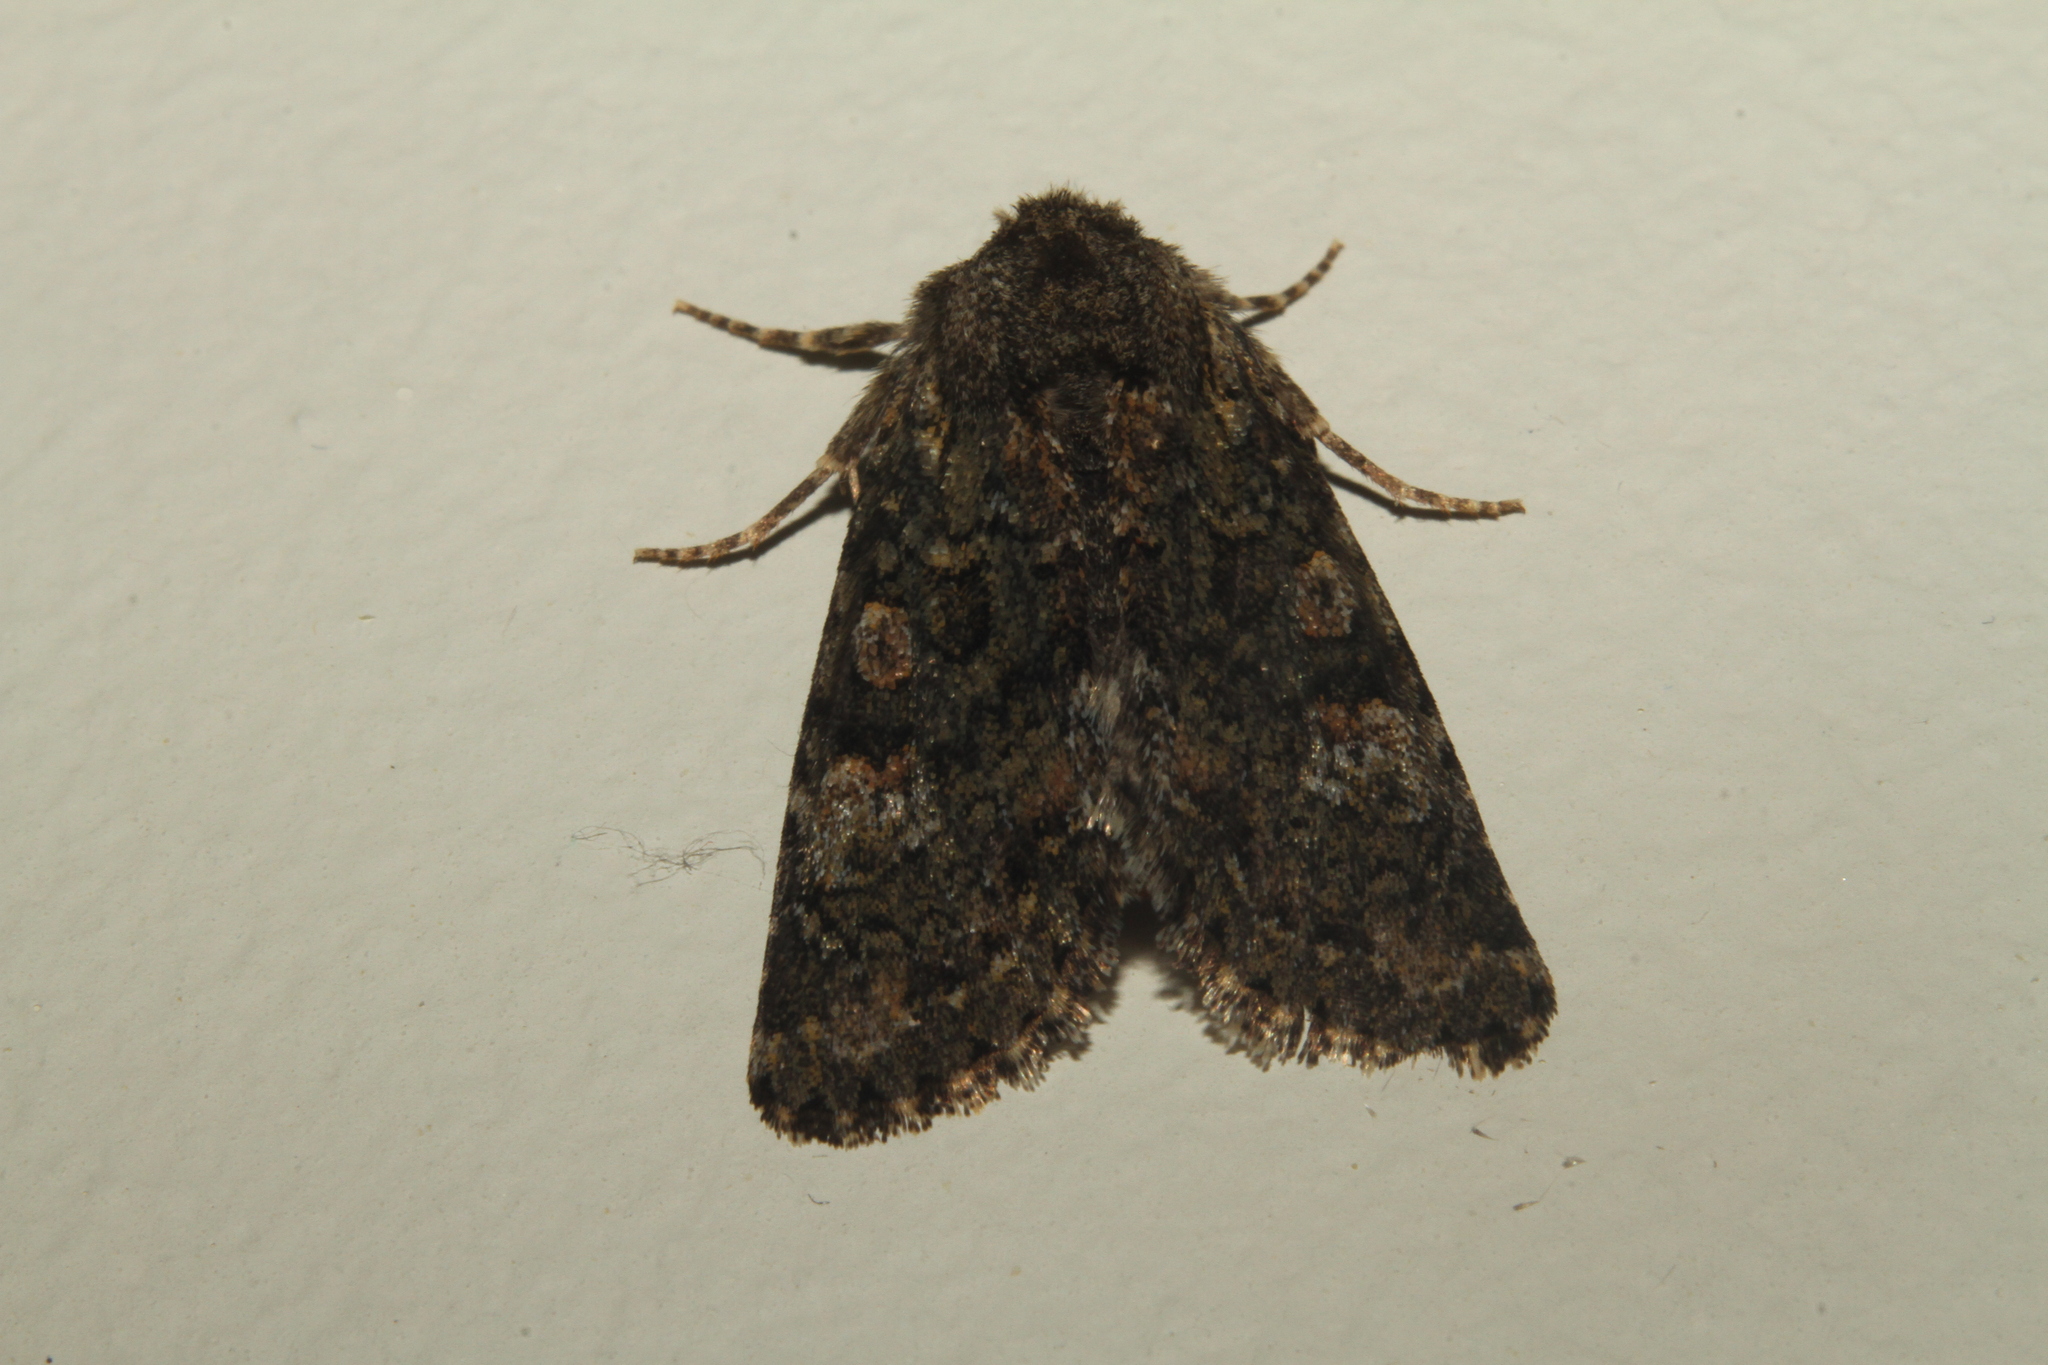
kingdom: Animalia
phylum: Arthropoda
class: Insecta
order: Lepidoptera
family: Noctuidae
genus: Polymixis
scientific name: Polymixis lichenea
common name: Feathered ranunculus
